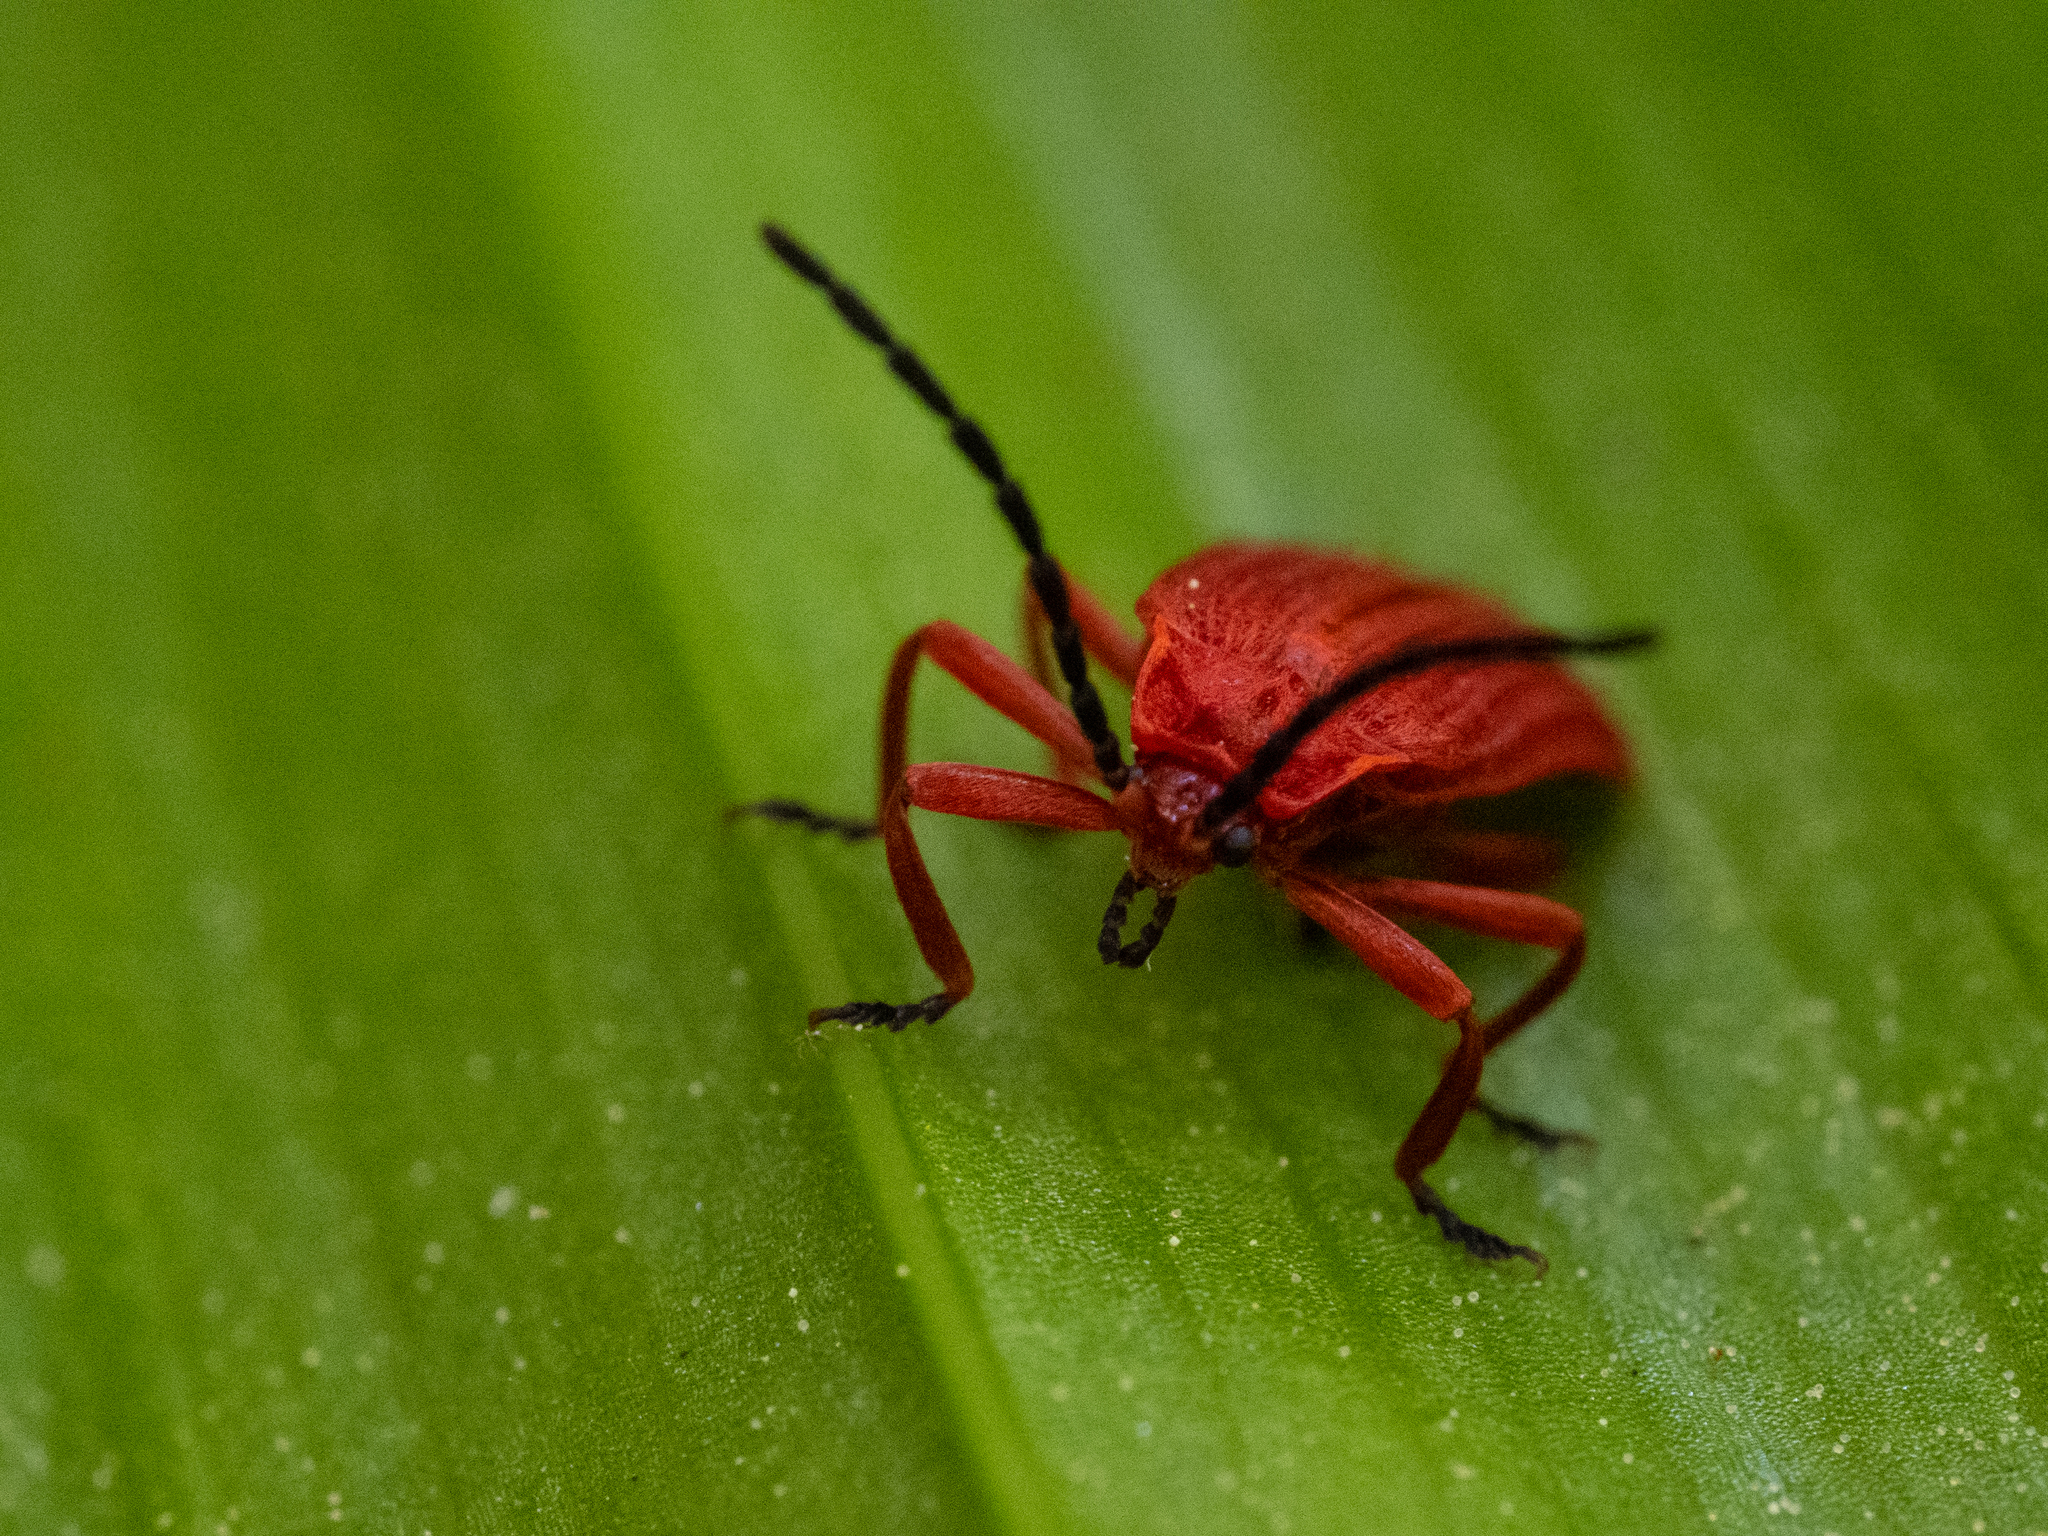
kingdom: Animalia
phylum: Arthropoda
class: Insecta
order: Coleoptera
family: Lycidae
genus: Punicealis
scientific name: Punicealis hamata
